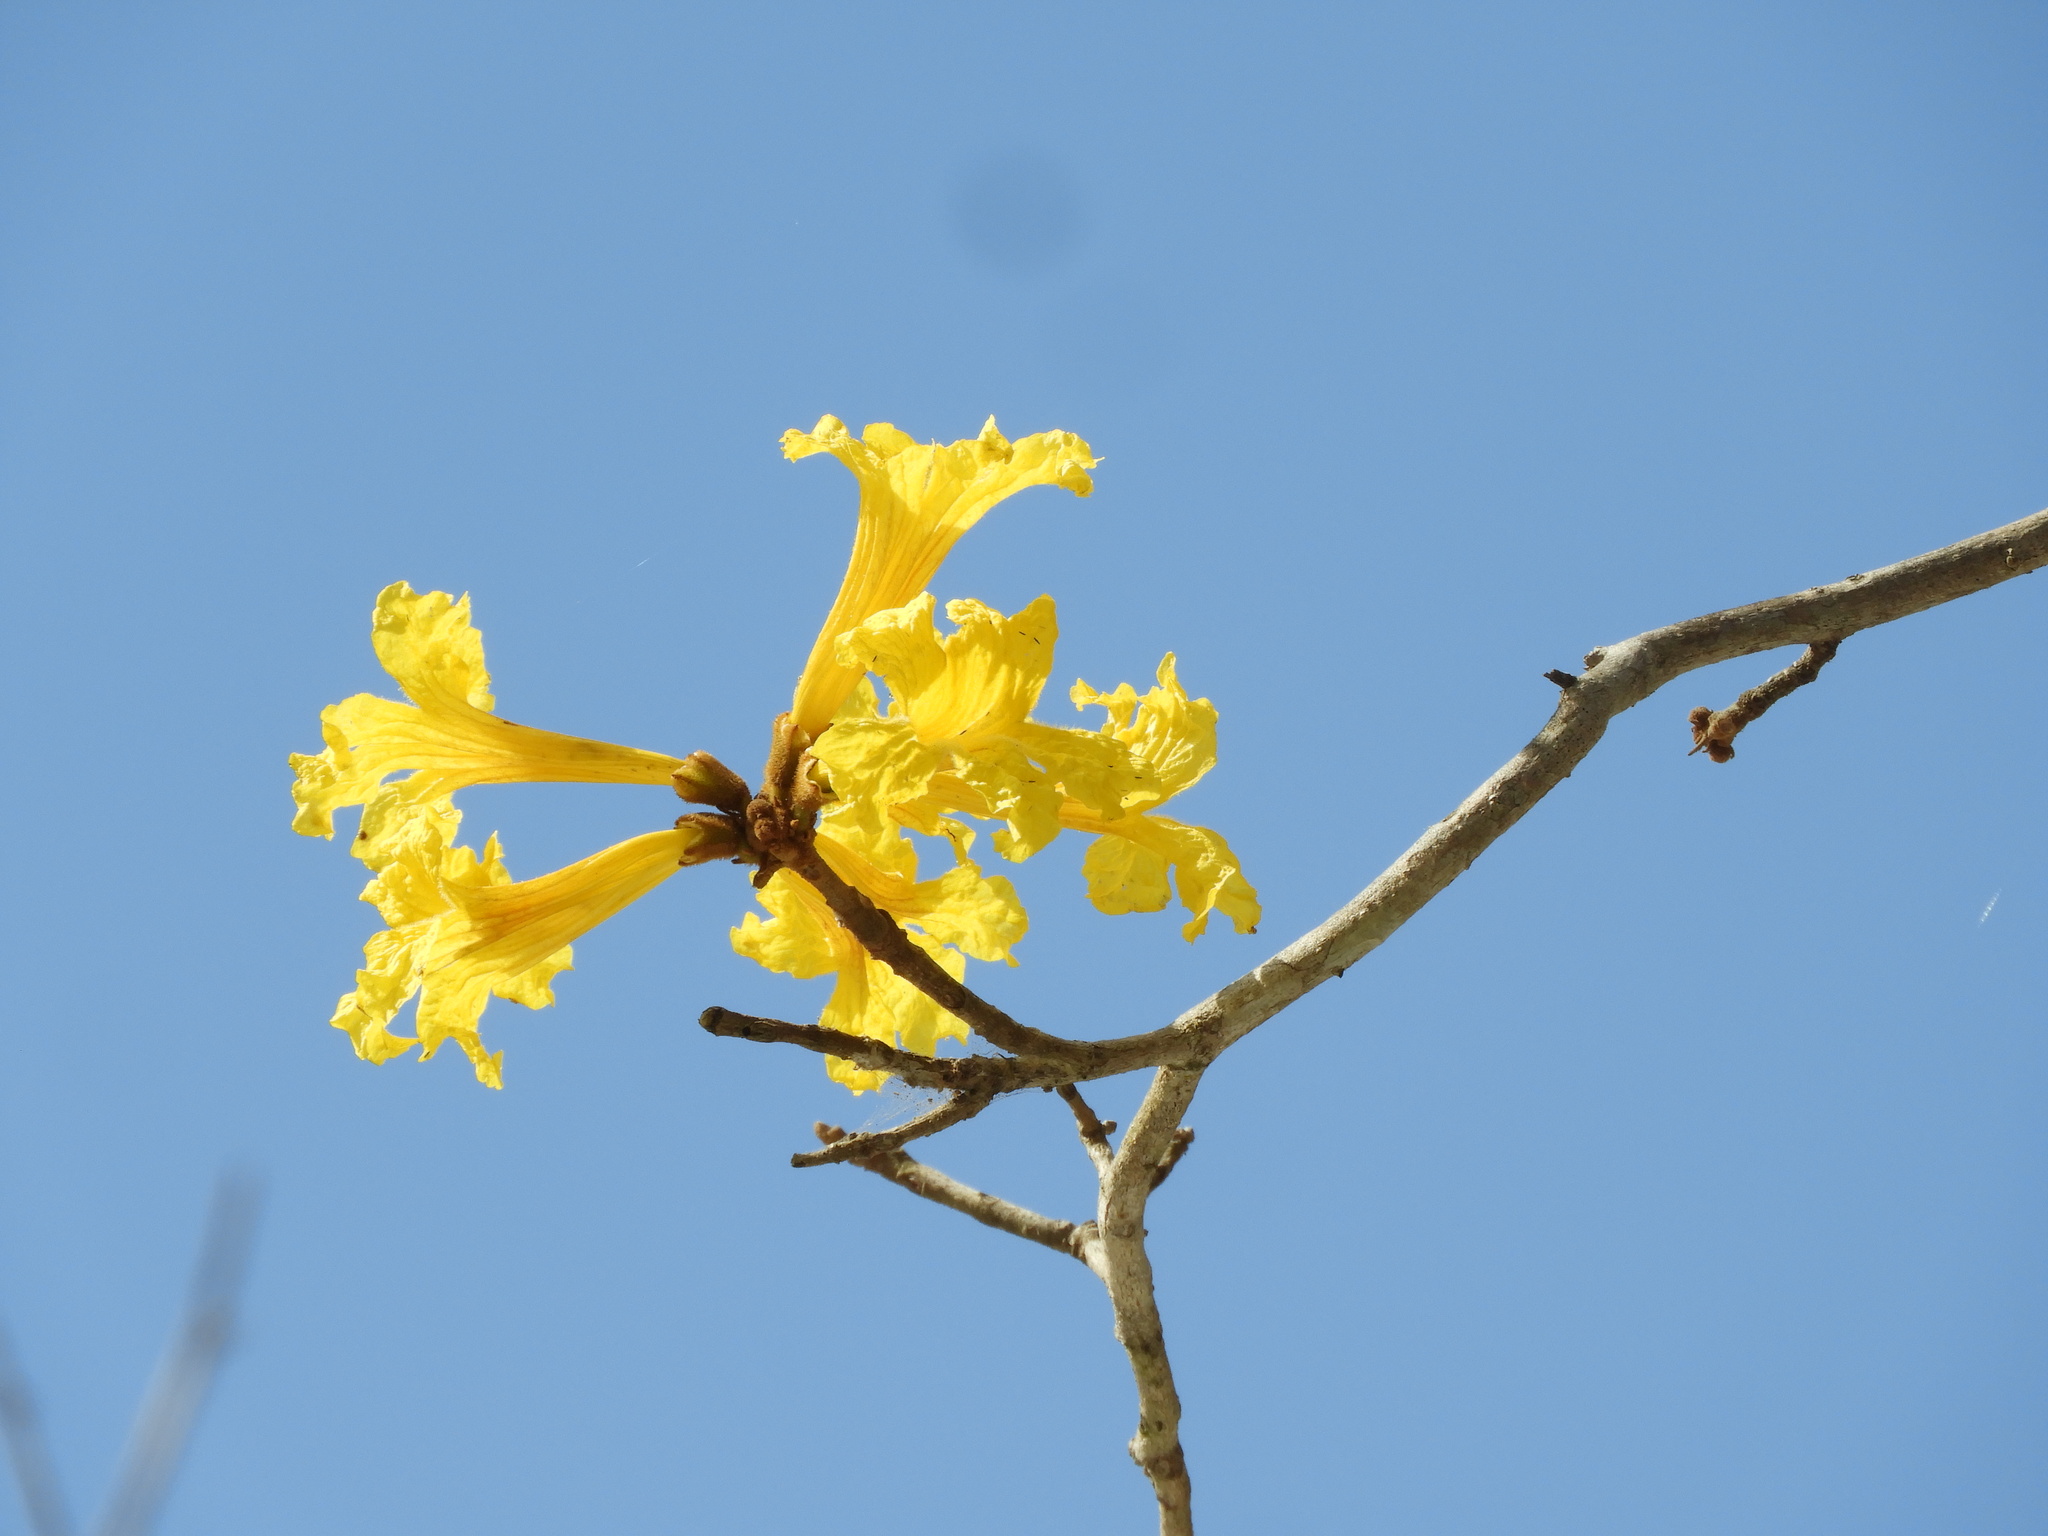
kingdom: Plantae
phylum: Tracheophyta
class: Magnoliopsida
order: Lamiales
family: Bignoniaceae
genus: Handroanthus
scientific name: Handroanthus chrysanthus
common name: Trumpet trees
